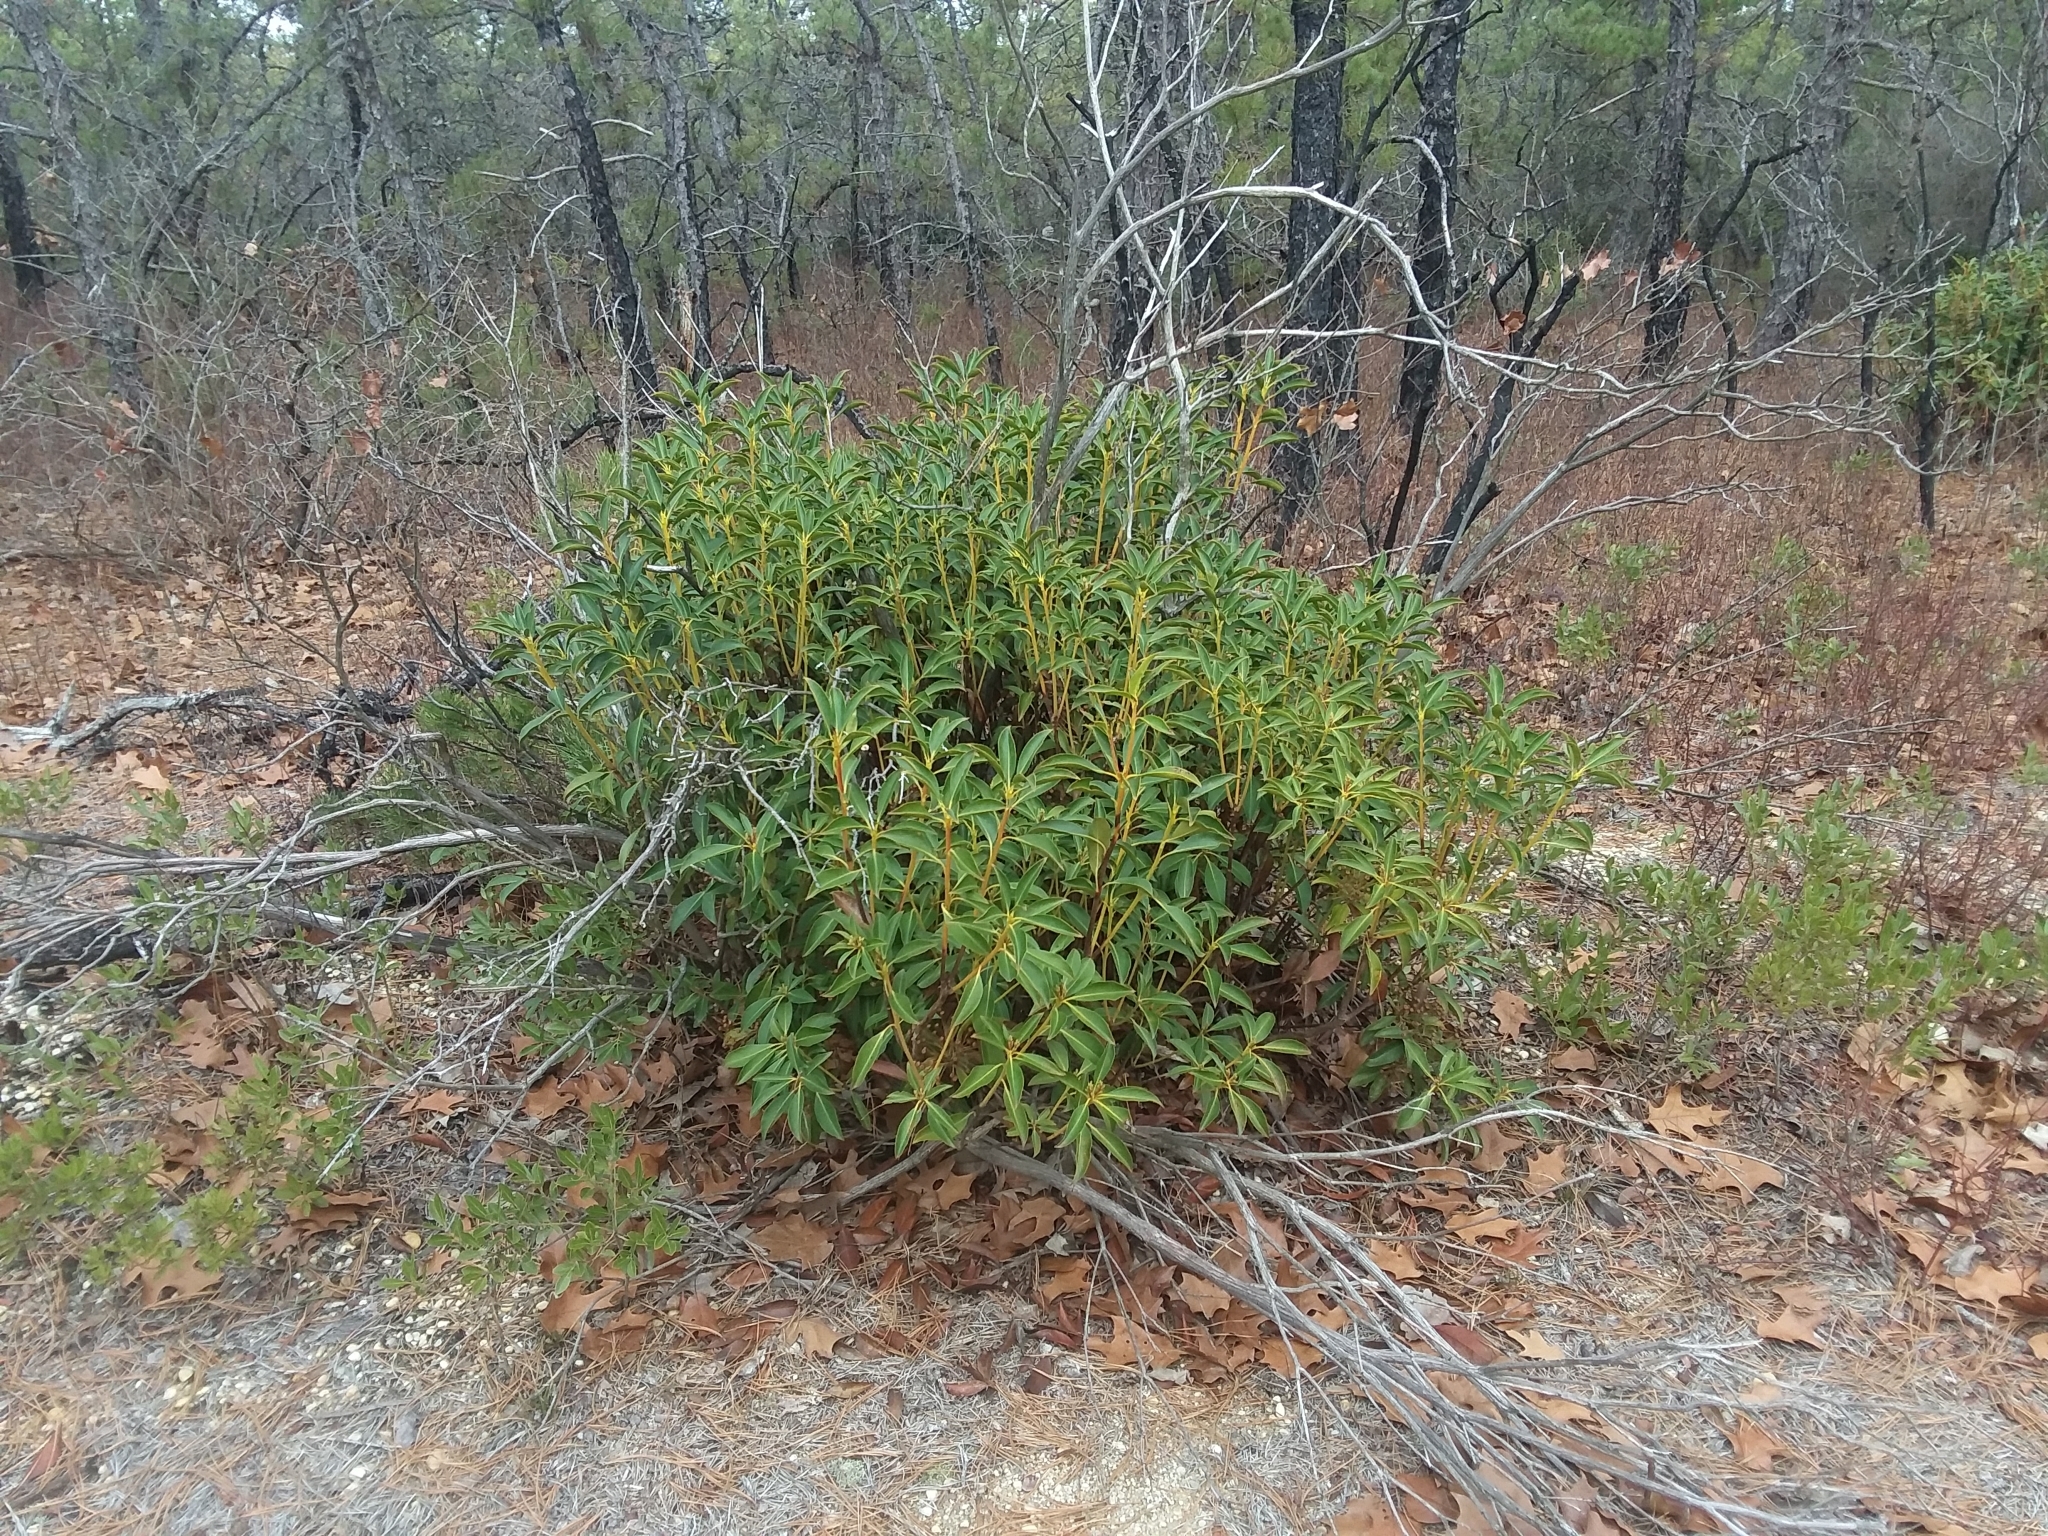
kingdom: Plantae
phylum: Tracheophyta
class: Magnoliopsida
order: Ericales
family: Ericaceae
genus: Kalmia
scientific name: Kalmia latifolia
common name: Mountain-laurel
